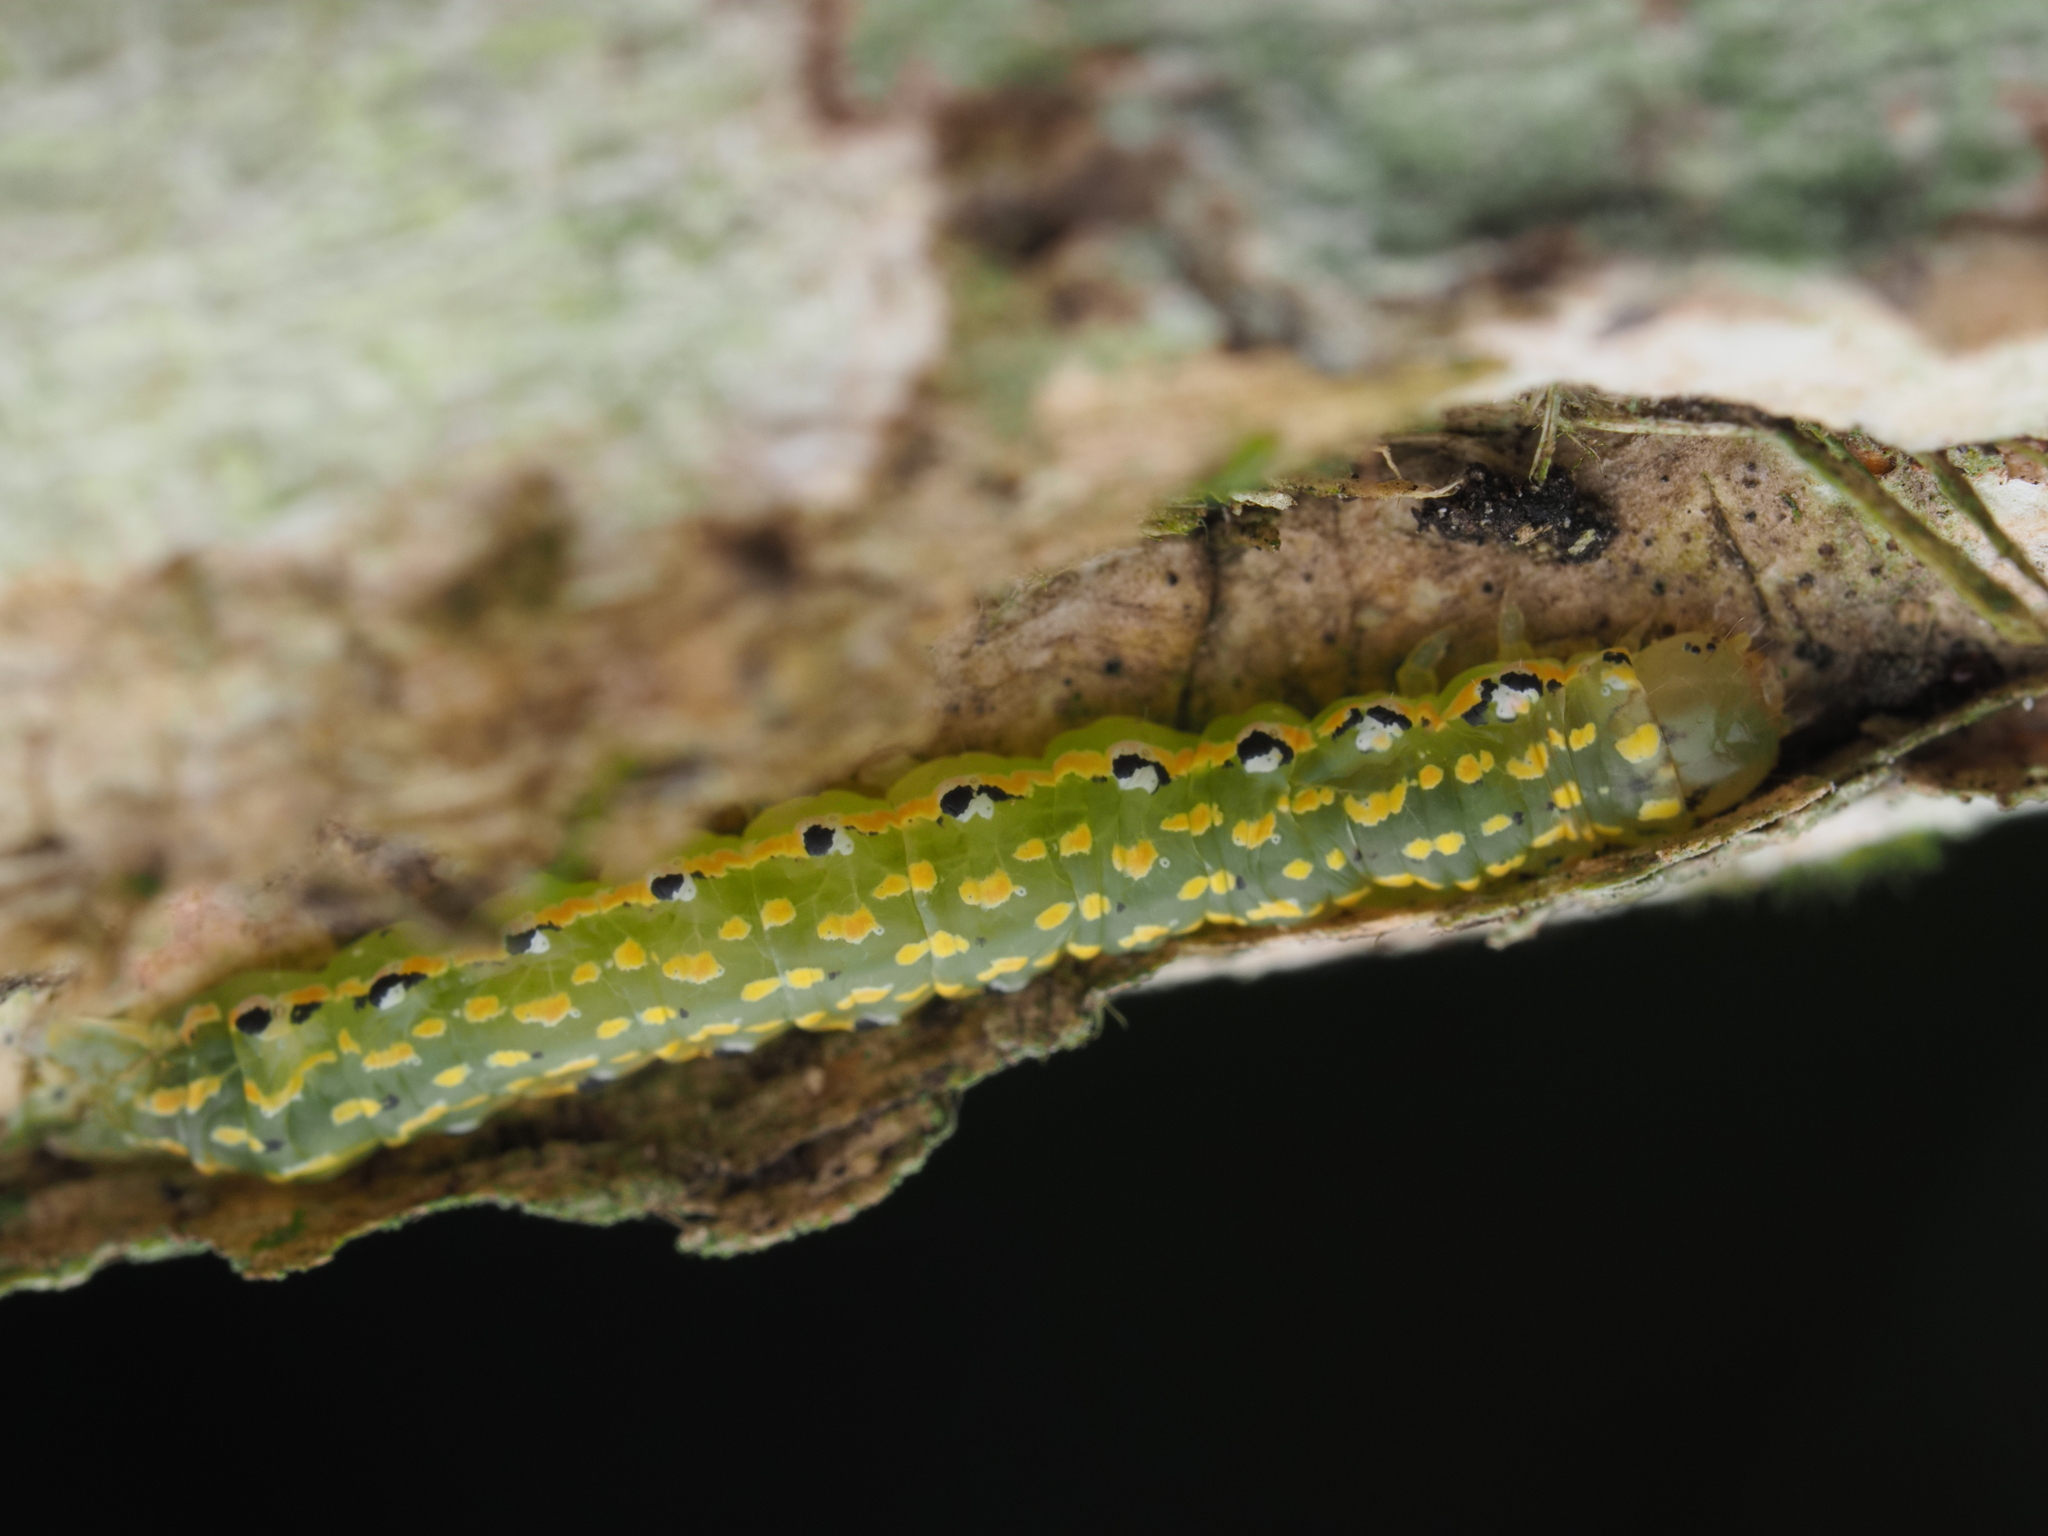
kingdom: Animalia
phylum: Arthropoda
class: Insecta
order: Lepidoptera
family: Noctuidae
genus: Austramathes
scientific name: Austramathes purpurea
